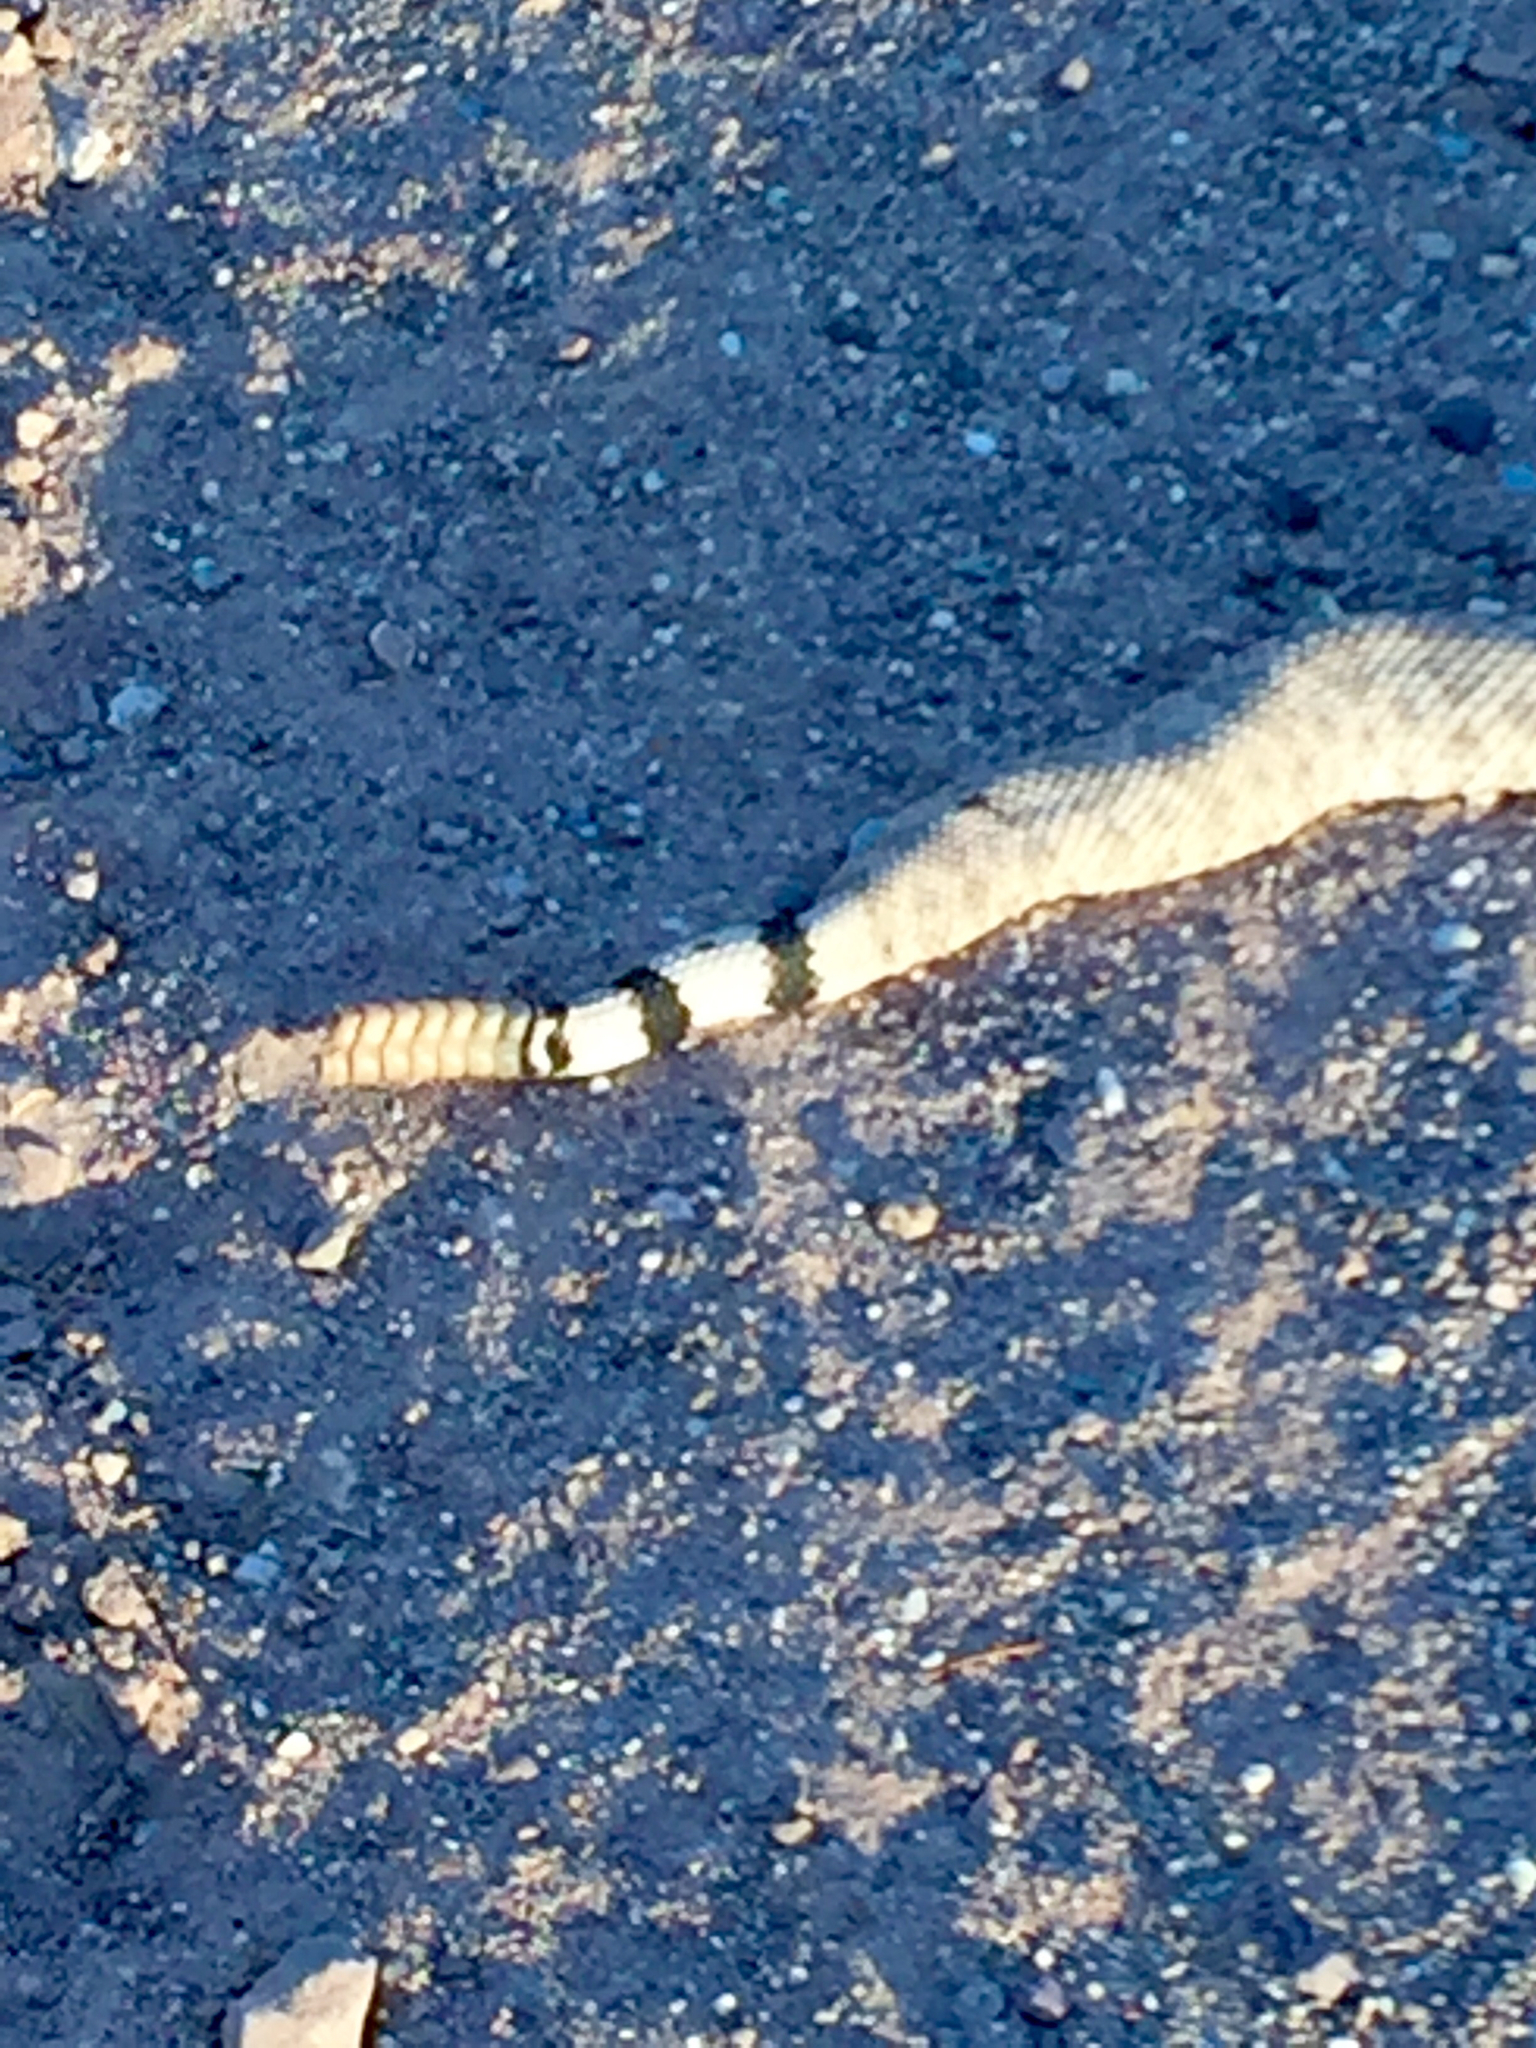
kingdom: Animalia
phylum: Chordata
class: Squamata
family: Viperidae
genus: Crotalus
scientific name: Crotalus atrox
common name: Western diamond-backed rattlesnake
